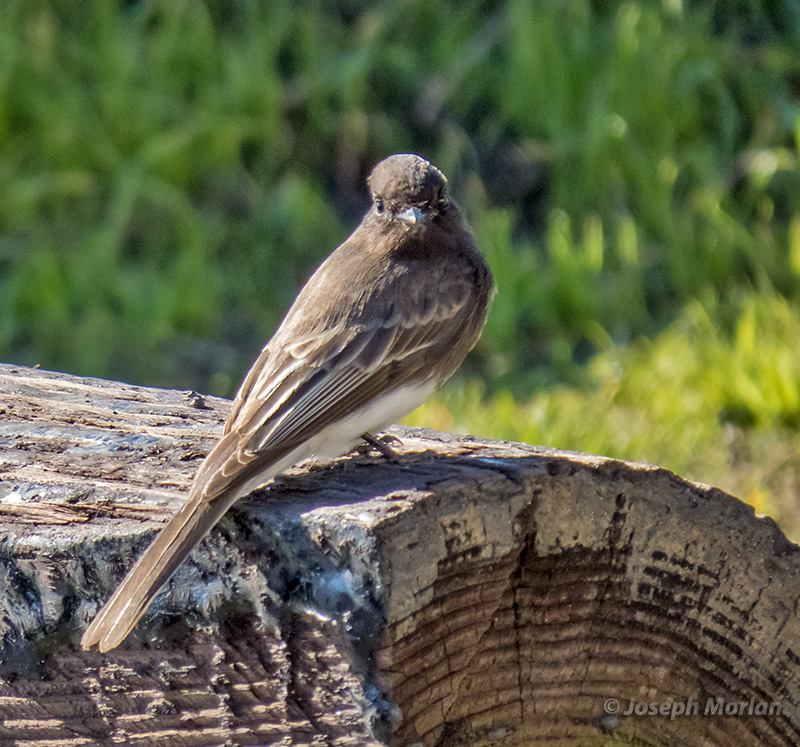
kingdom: Animalia
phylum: Chordata
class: Aves
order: Passeriformes
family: Tyrannidae
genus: Sayornis
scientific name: Sayornis nigricans
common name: Black phoebe
